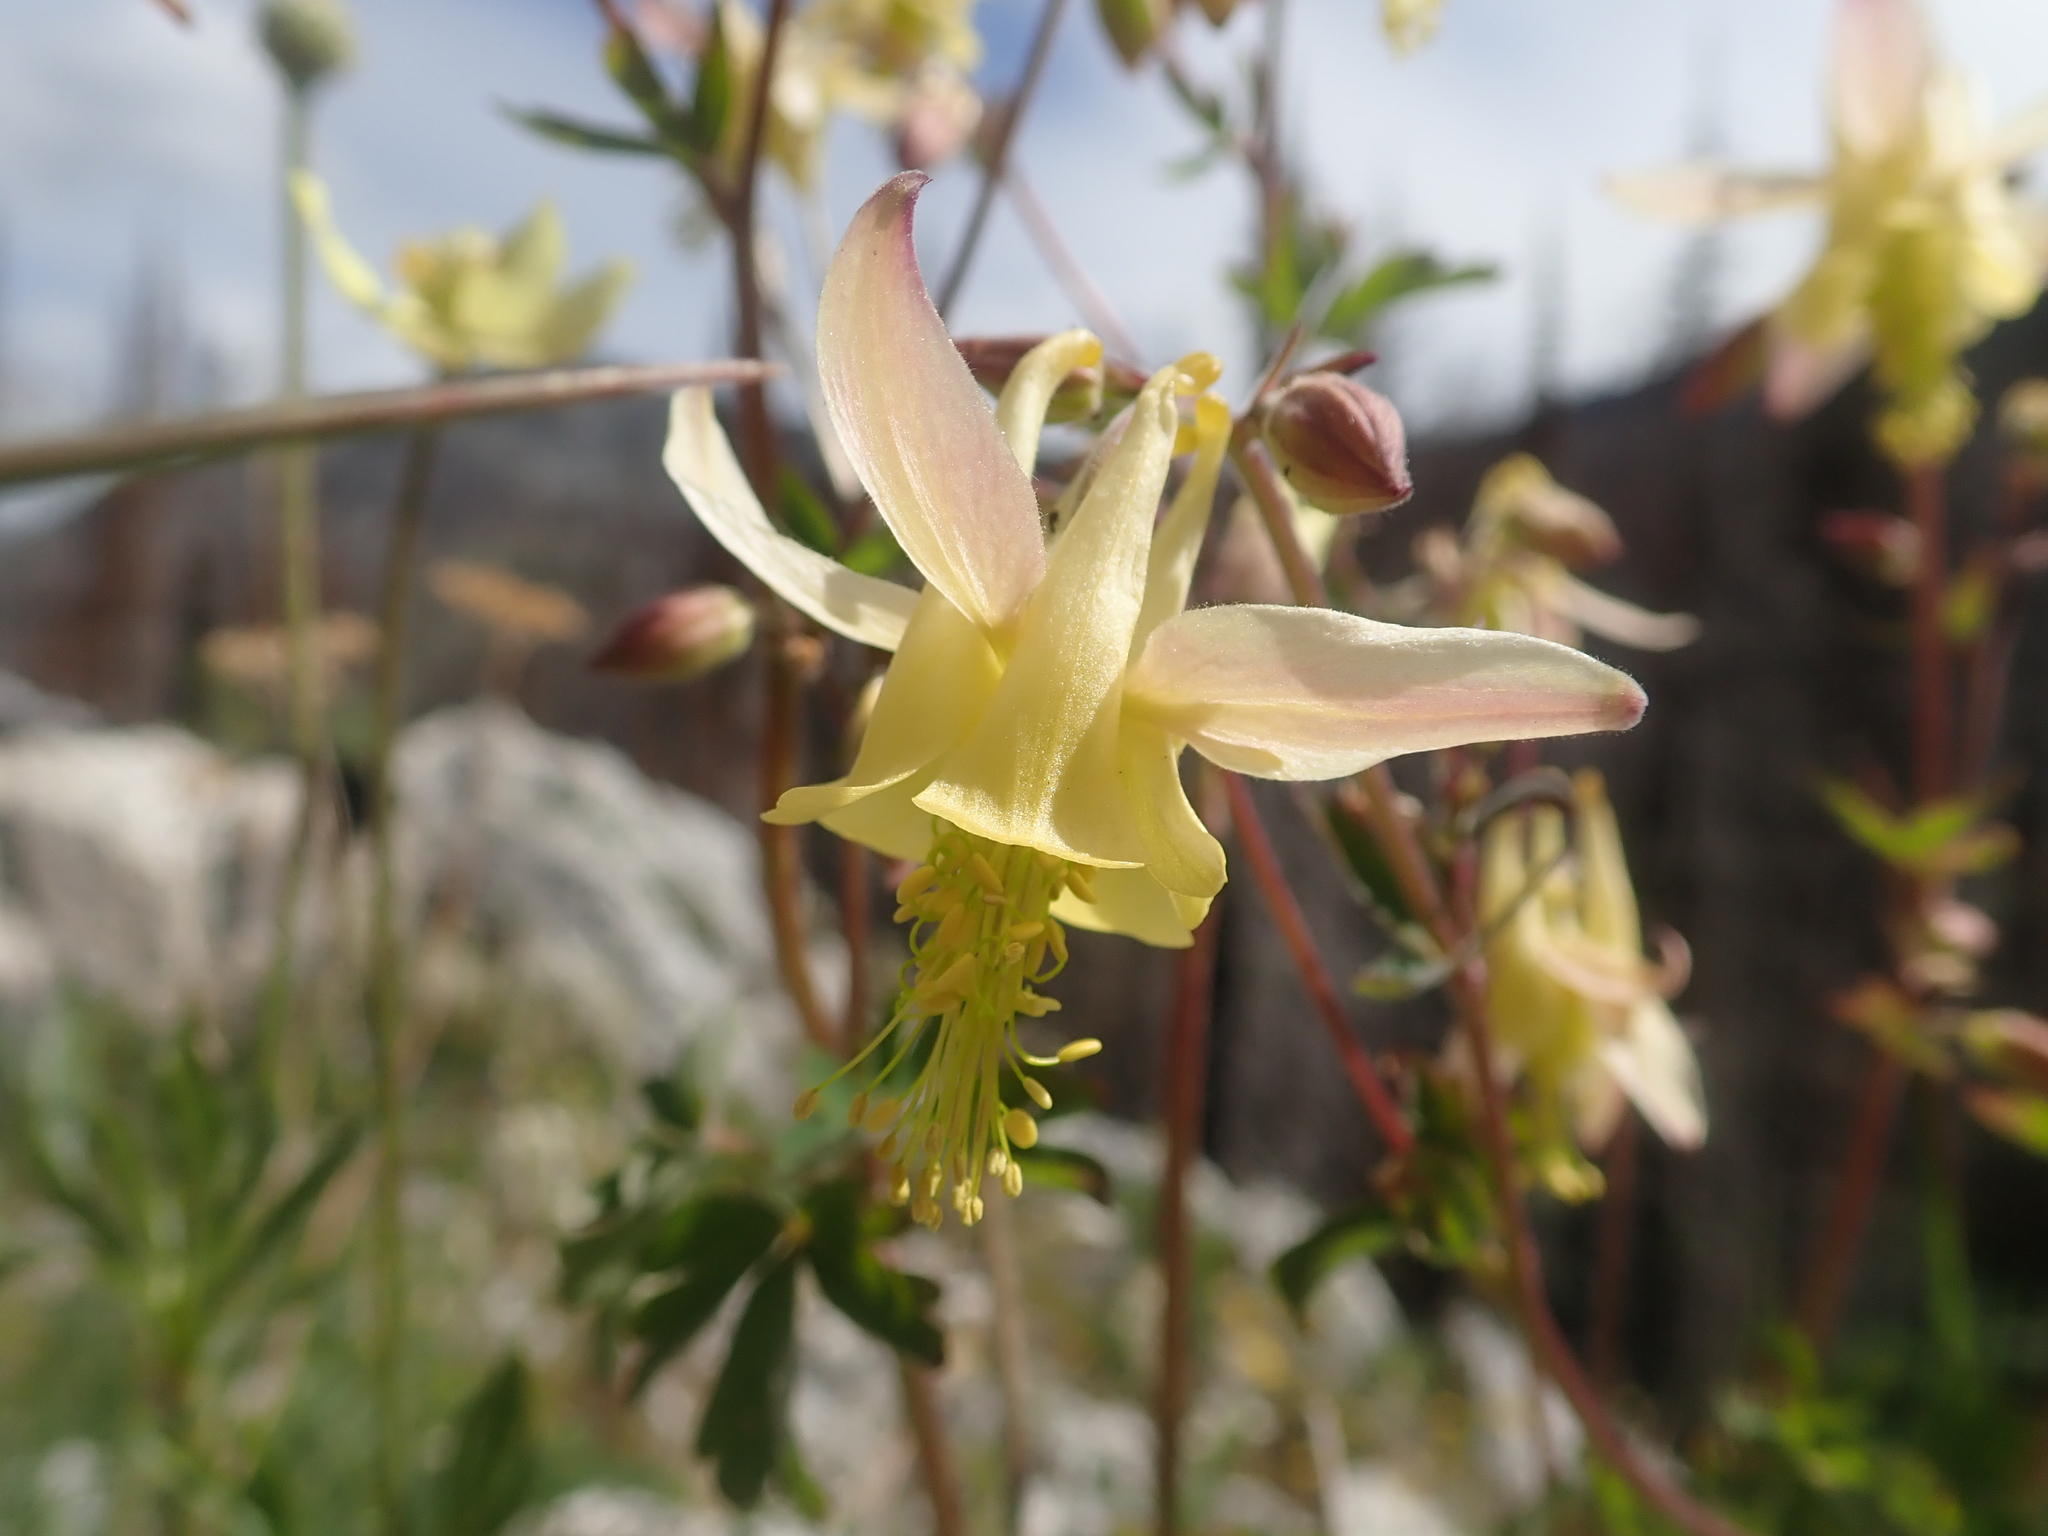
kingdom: Plantae
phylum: Tracheophyta
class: Magnoliopsida
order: Ranunculales
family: Ranunculaceae
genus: Aquilegia
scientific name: Aquilegia flavescens
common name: Yellow columbine
